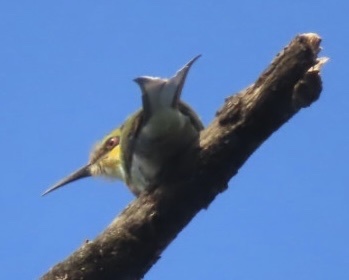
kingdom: Animalia
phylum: Chordata
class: Aves
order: Coraciiformes
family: Meropidae
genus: Merops
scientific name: Merops hirundineus
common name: Swallow-tailed bee-eater
